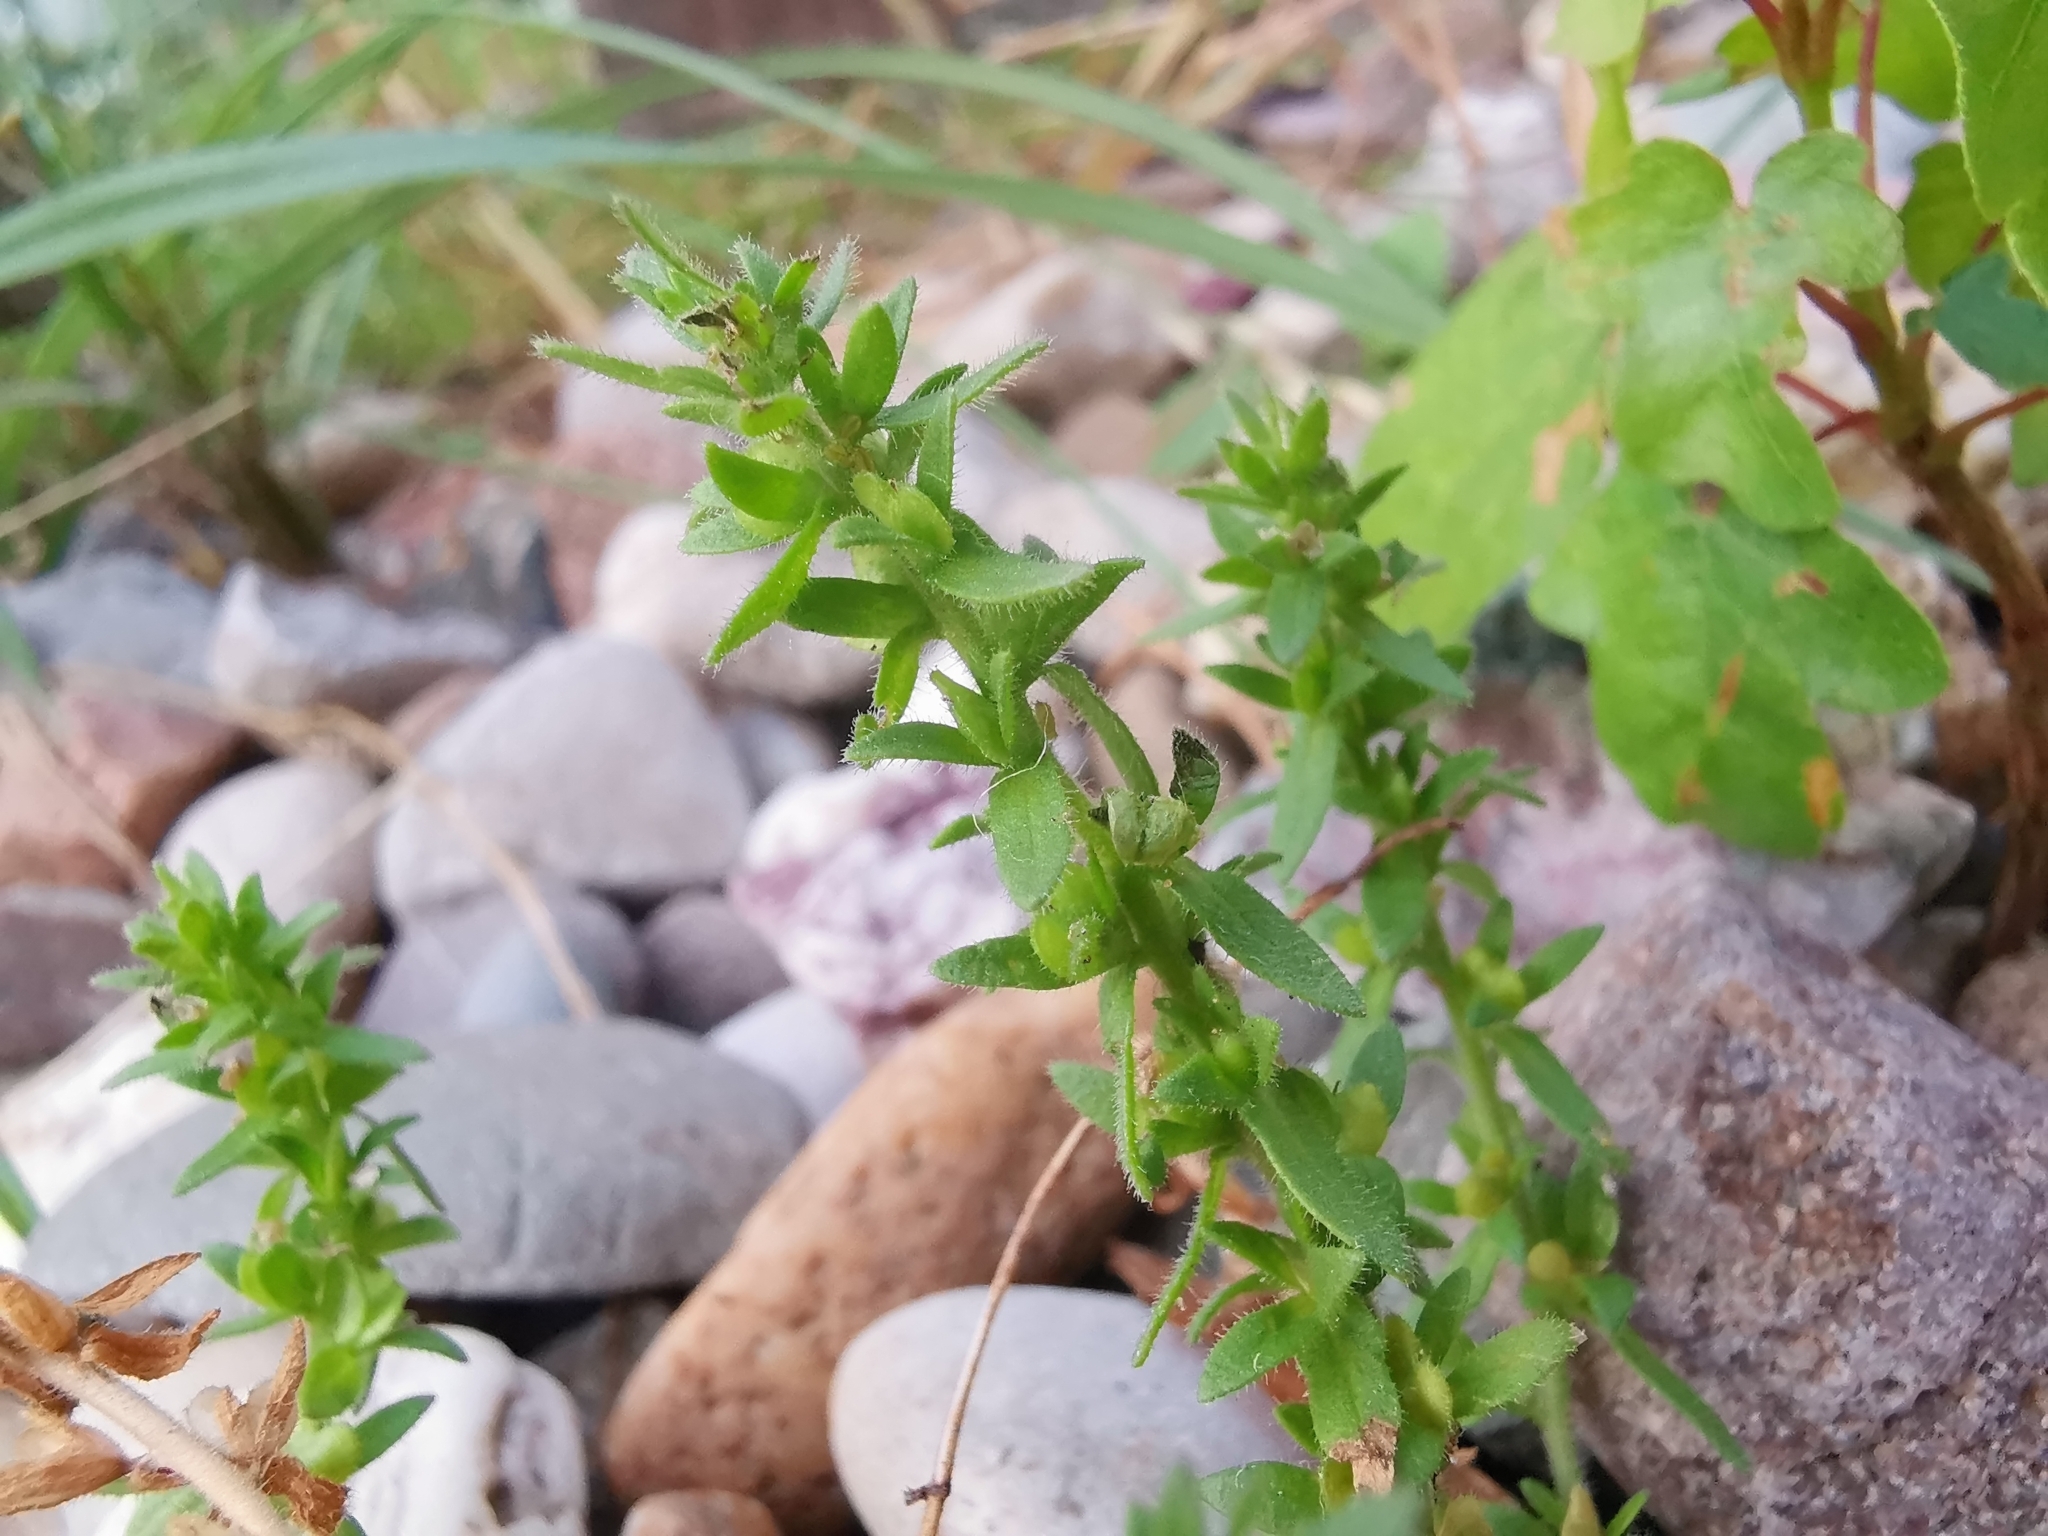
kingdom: Plantae
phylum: Tracheophyta
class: Magnoliopsida
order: Lamiales
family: Plantaginaceae
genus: Veronica
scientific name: Veronica arvensis
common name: Corn speedwell
